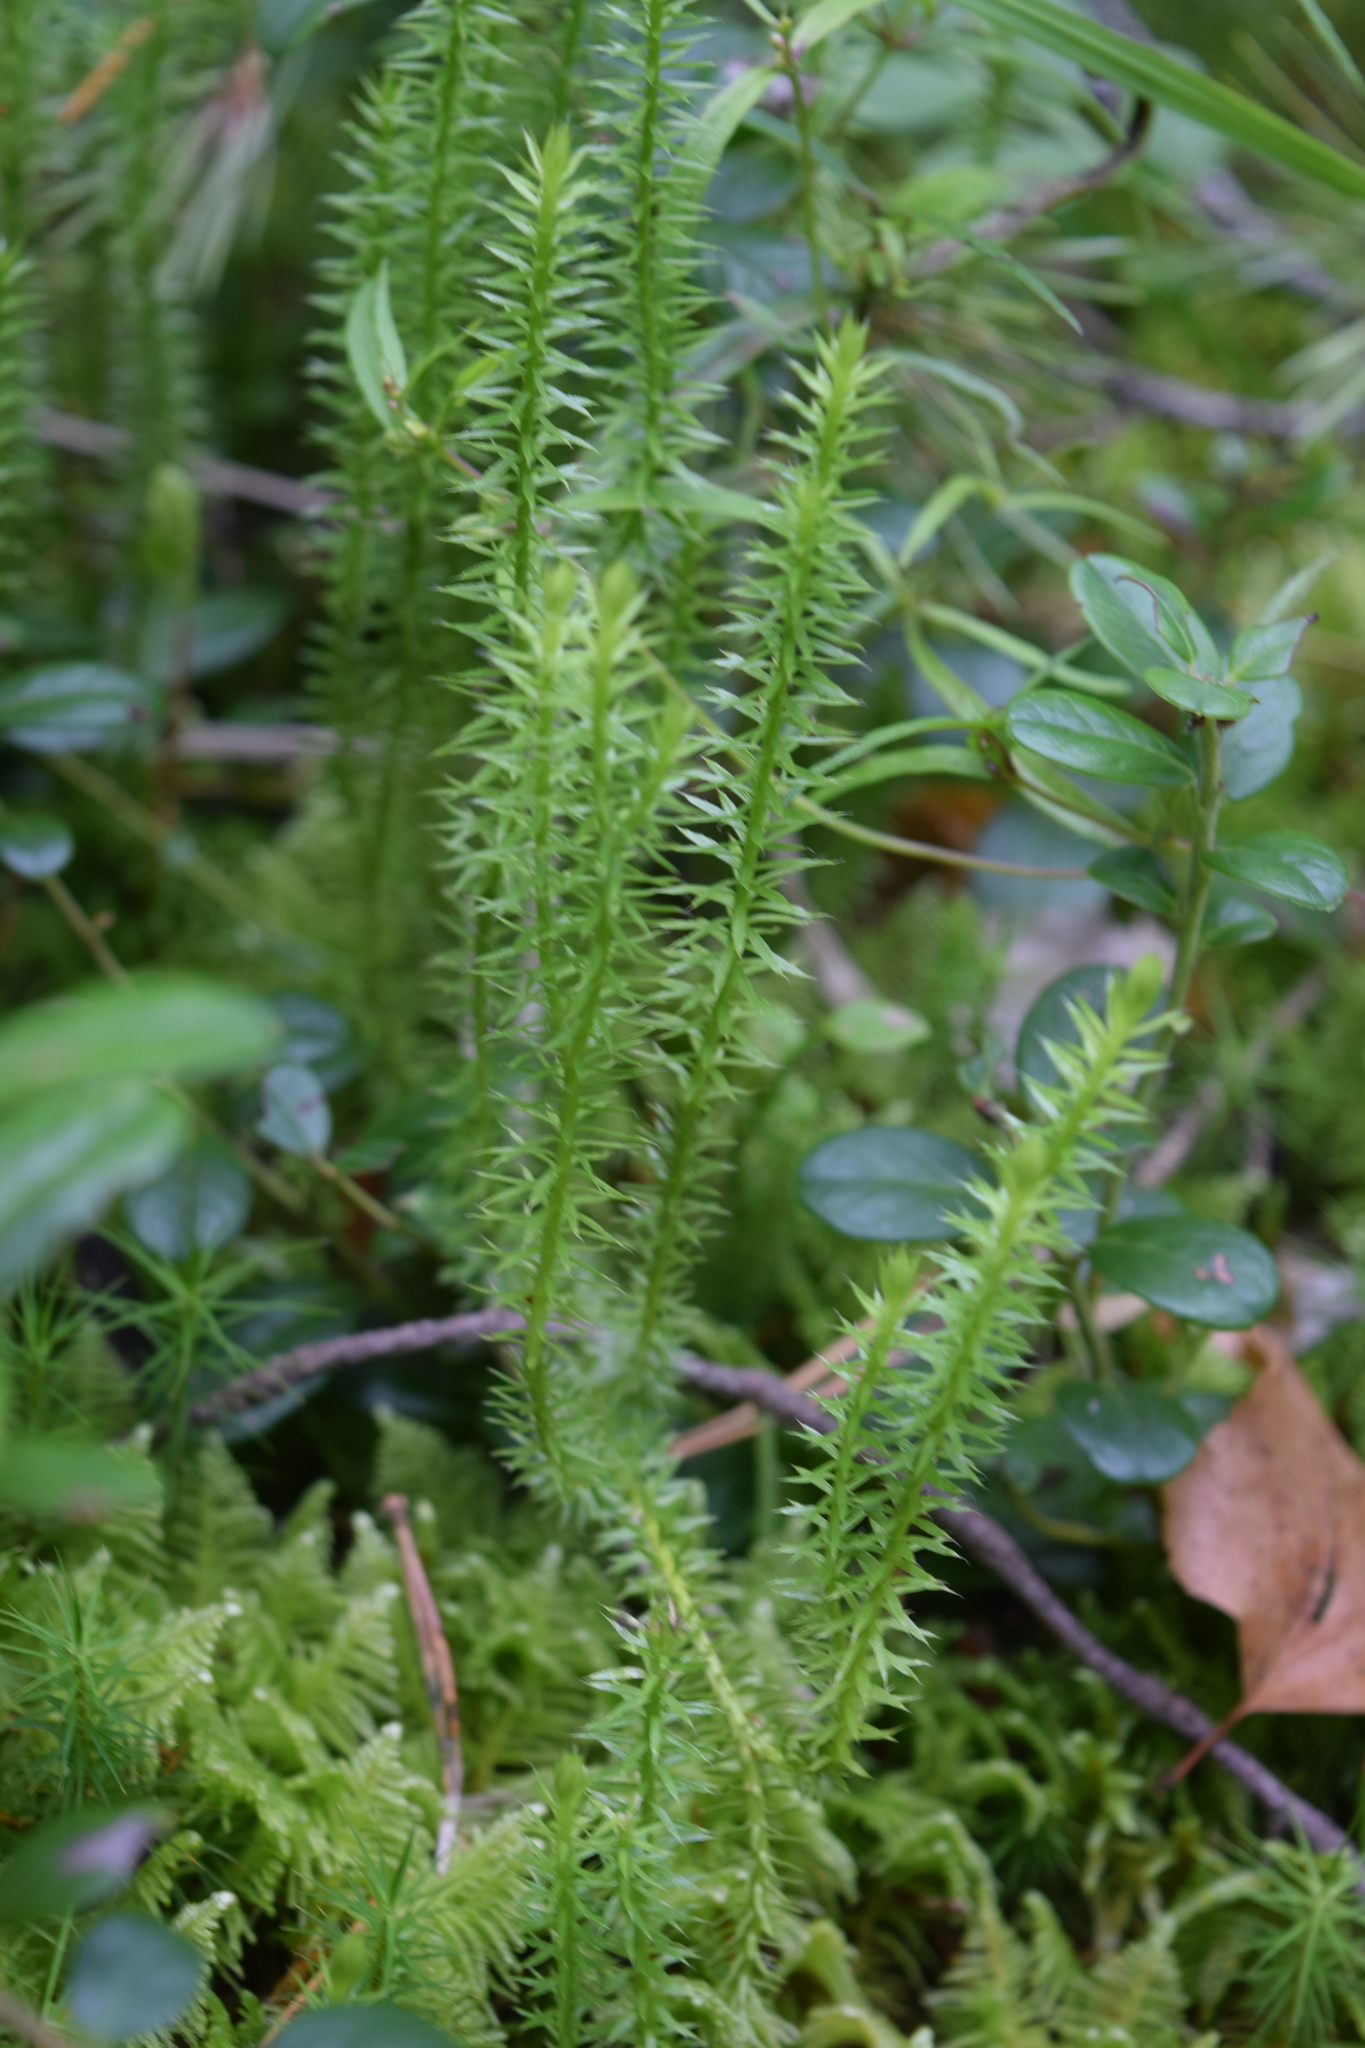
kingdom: Plantae
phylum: Tracheophyta
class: Lycopodiopsida
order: Lycopodiales
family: Lycopodiaceae
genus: Spinulum
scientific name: Spinulum annotinum
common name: Interrupted club-moss
